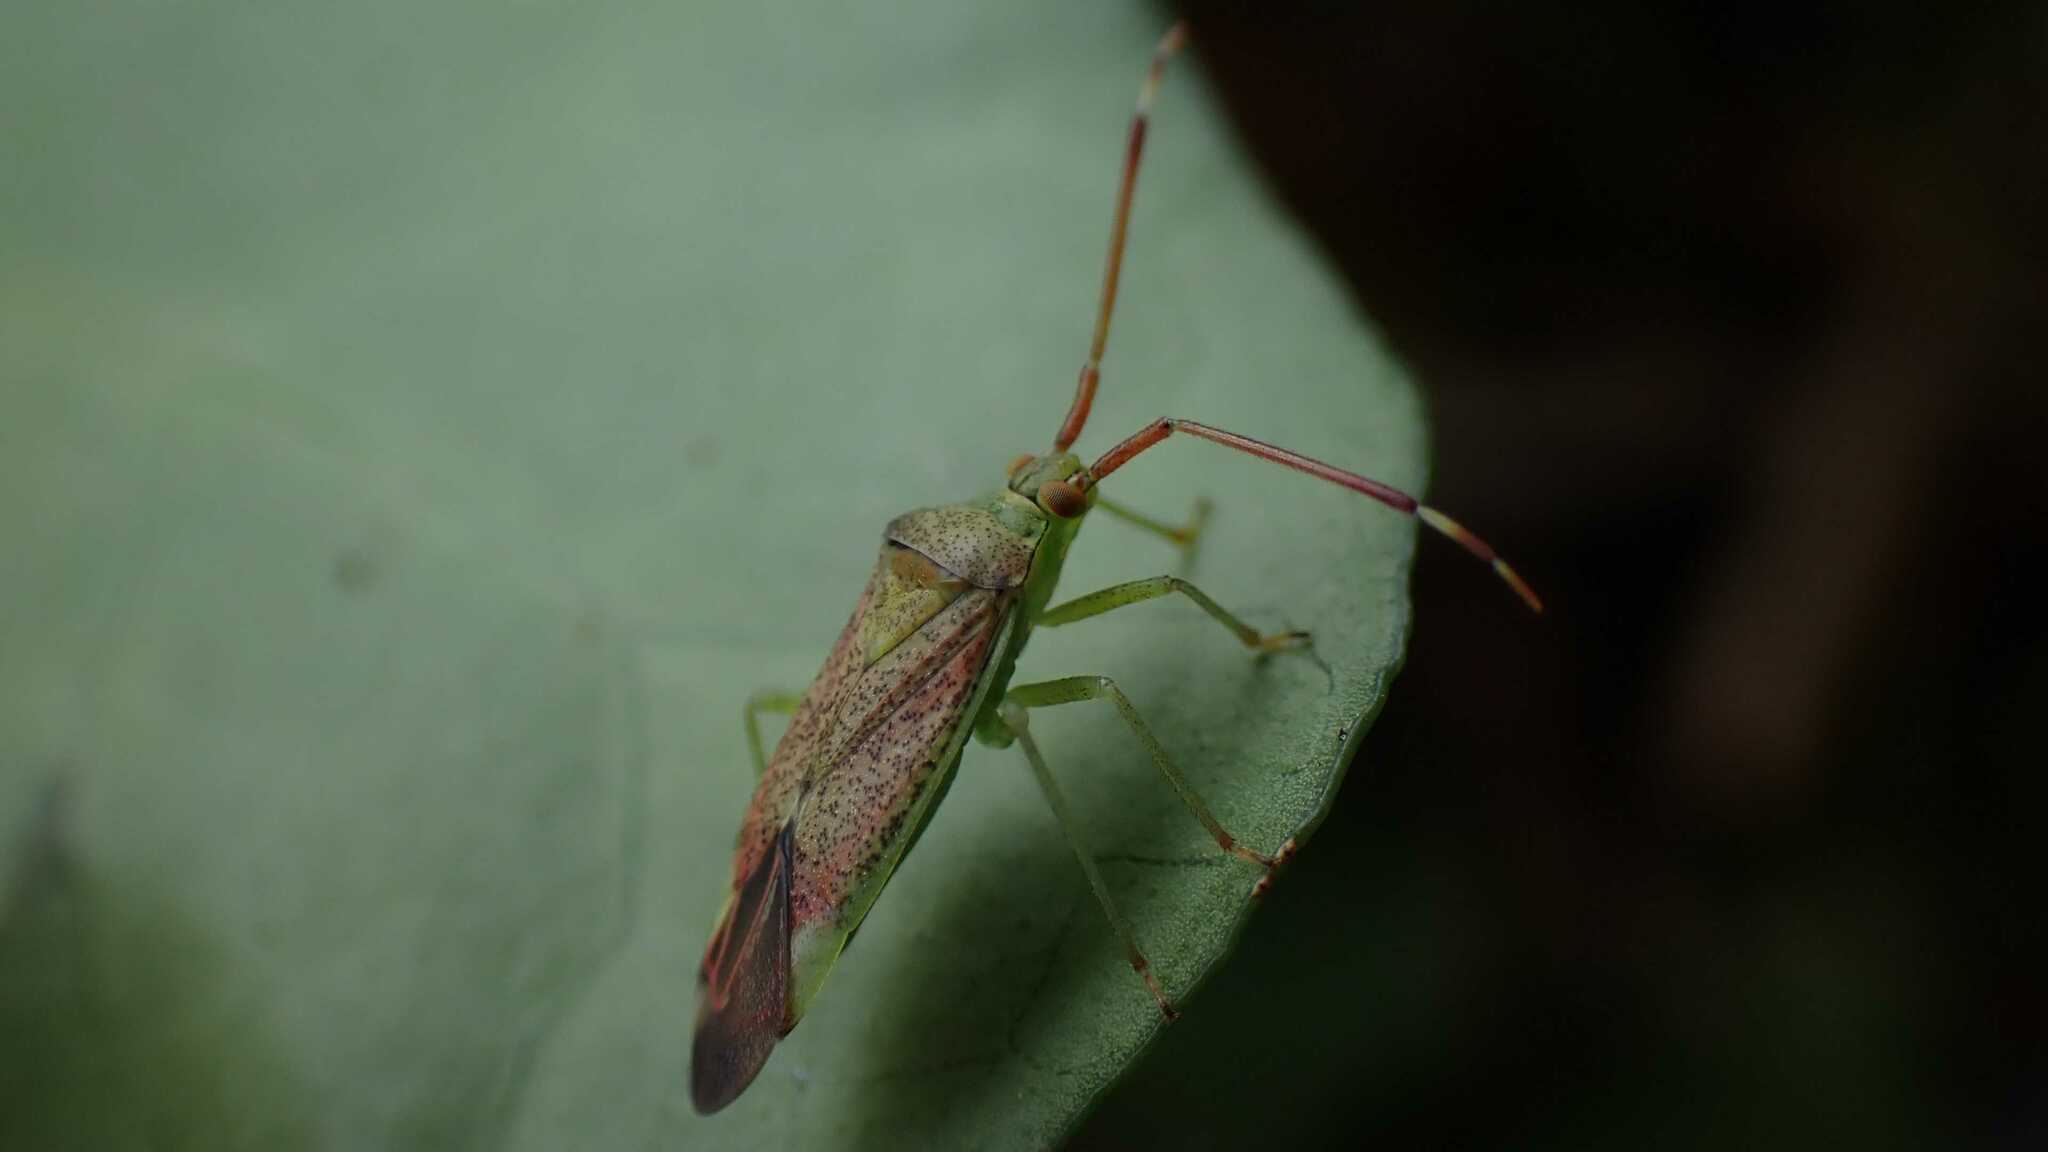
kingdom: Animalia
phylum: Arthropoda
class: Insecta
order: Hemiptera
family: Miridae
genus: Pantilius
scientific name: Pantilius tunicatus
